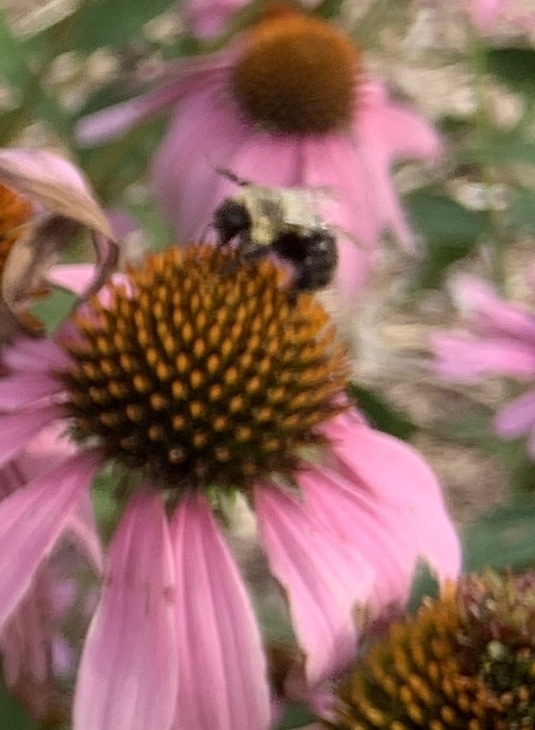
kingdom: Animalia
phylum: Arthropoda
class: Insecta
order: Hymenoptera
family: Apidae
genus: Bombus
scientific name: Bombus impatiens
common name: Common eastern bumble bee
